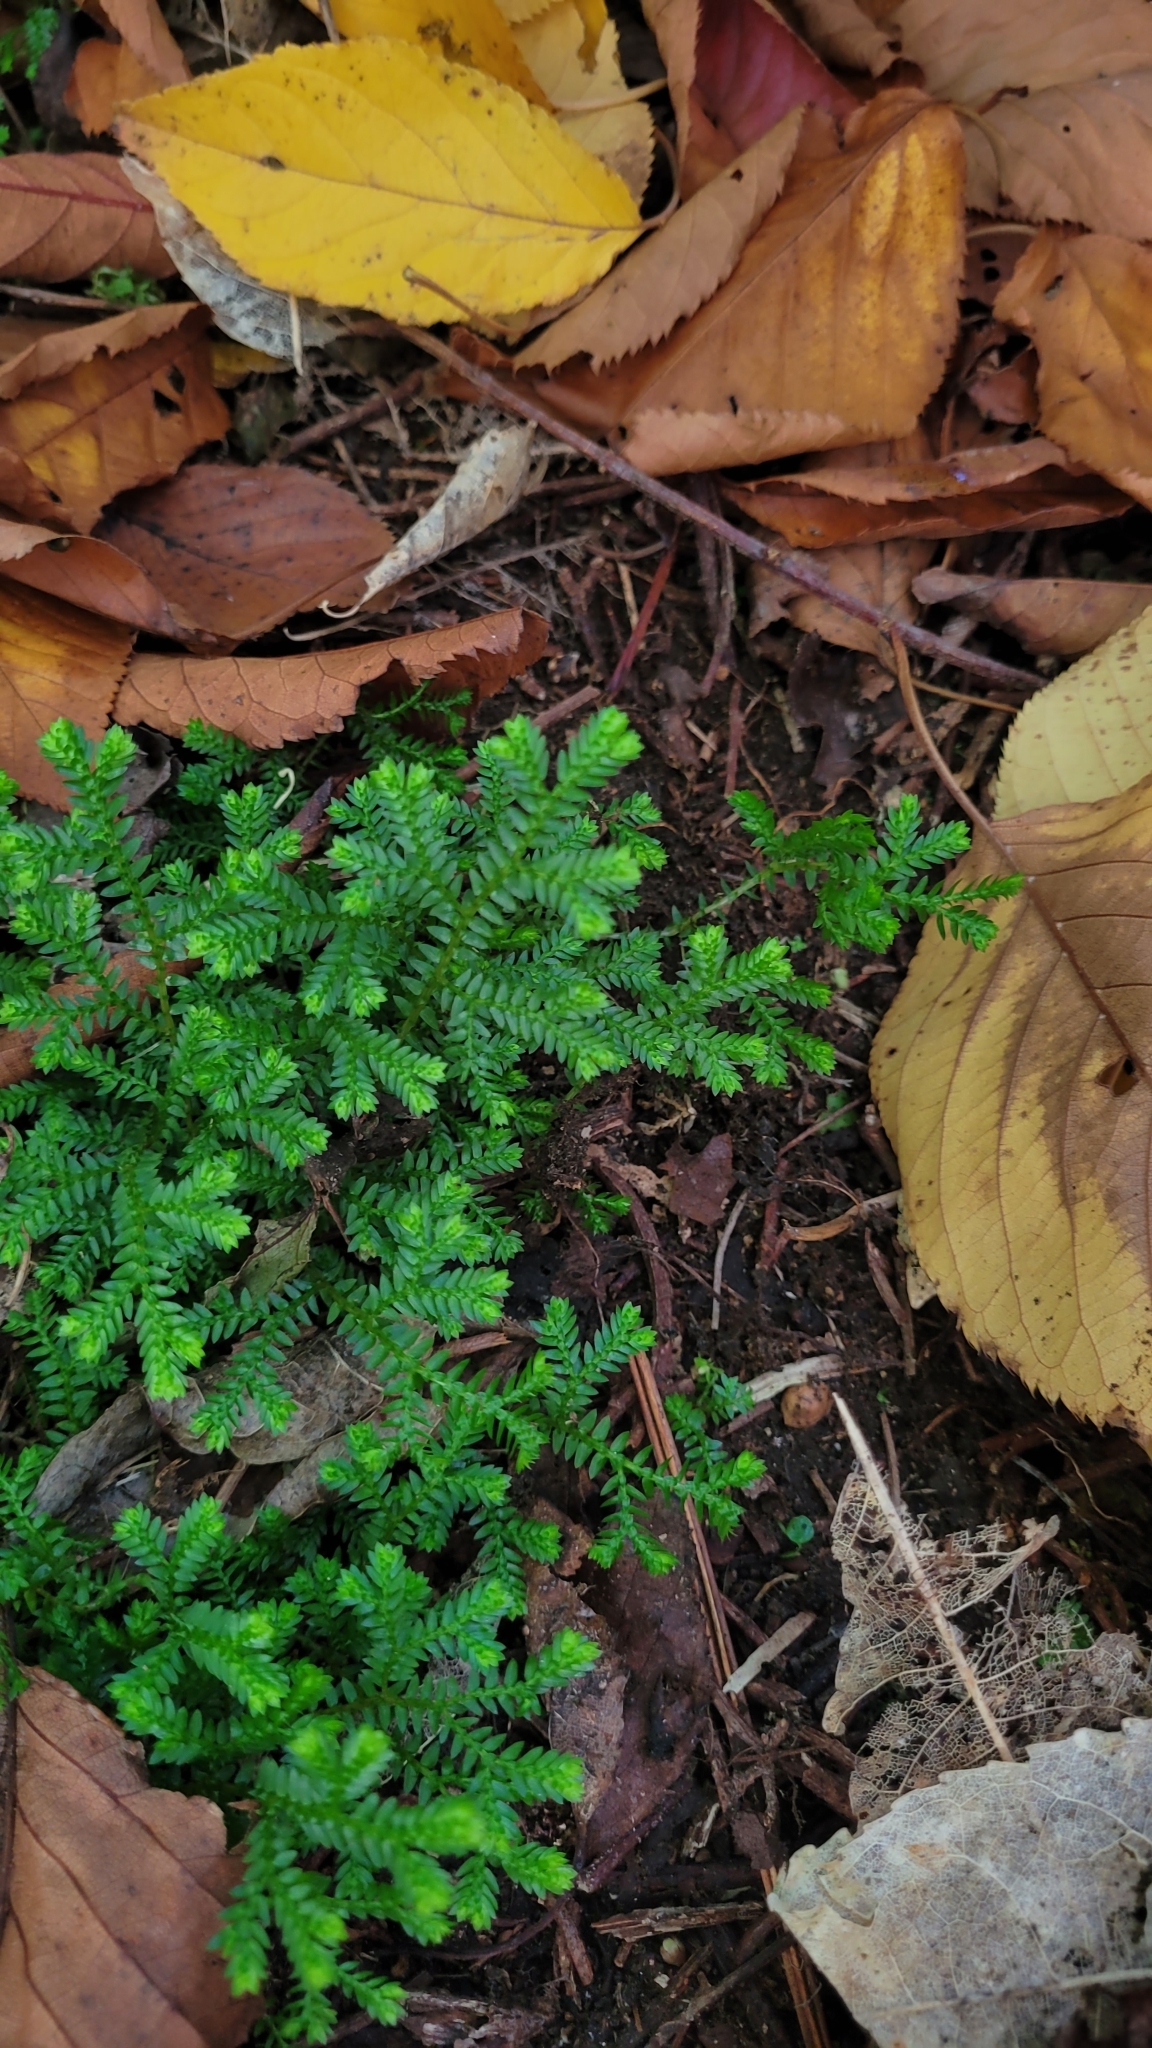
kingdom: Plantae
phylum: Tracheophyta
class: Lycopodiopsida
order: Selaginellales
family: Selaginellaceae
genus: Selaginella
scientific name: Selaginella kraussiana
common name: Krauss' spikemoss
